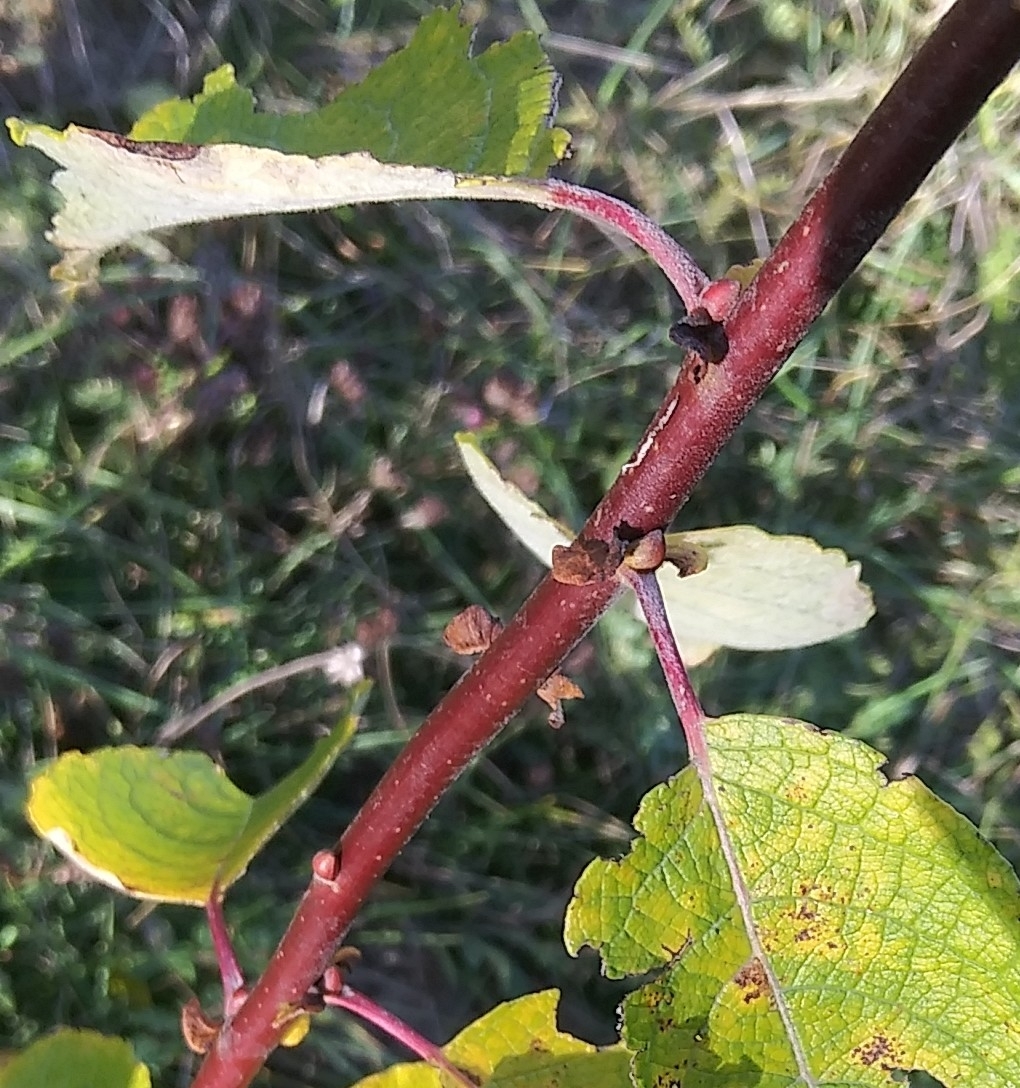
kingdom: Plantae
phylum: Tracheophyta
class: Magnoliopsida
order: Malpighiales
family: Salicaceae
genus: Salix
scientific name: Salix caprea
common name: Goat willow
